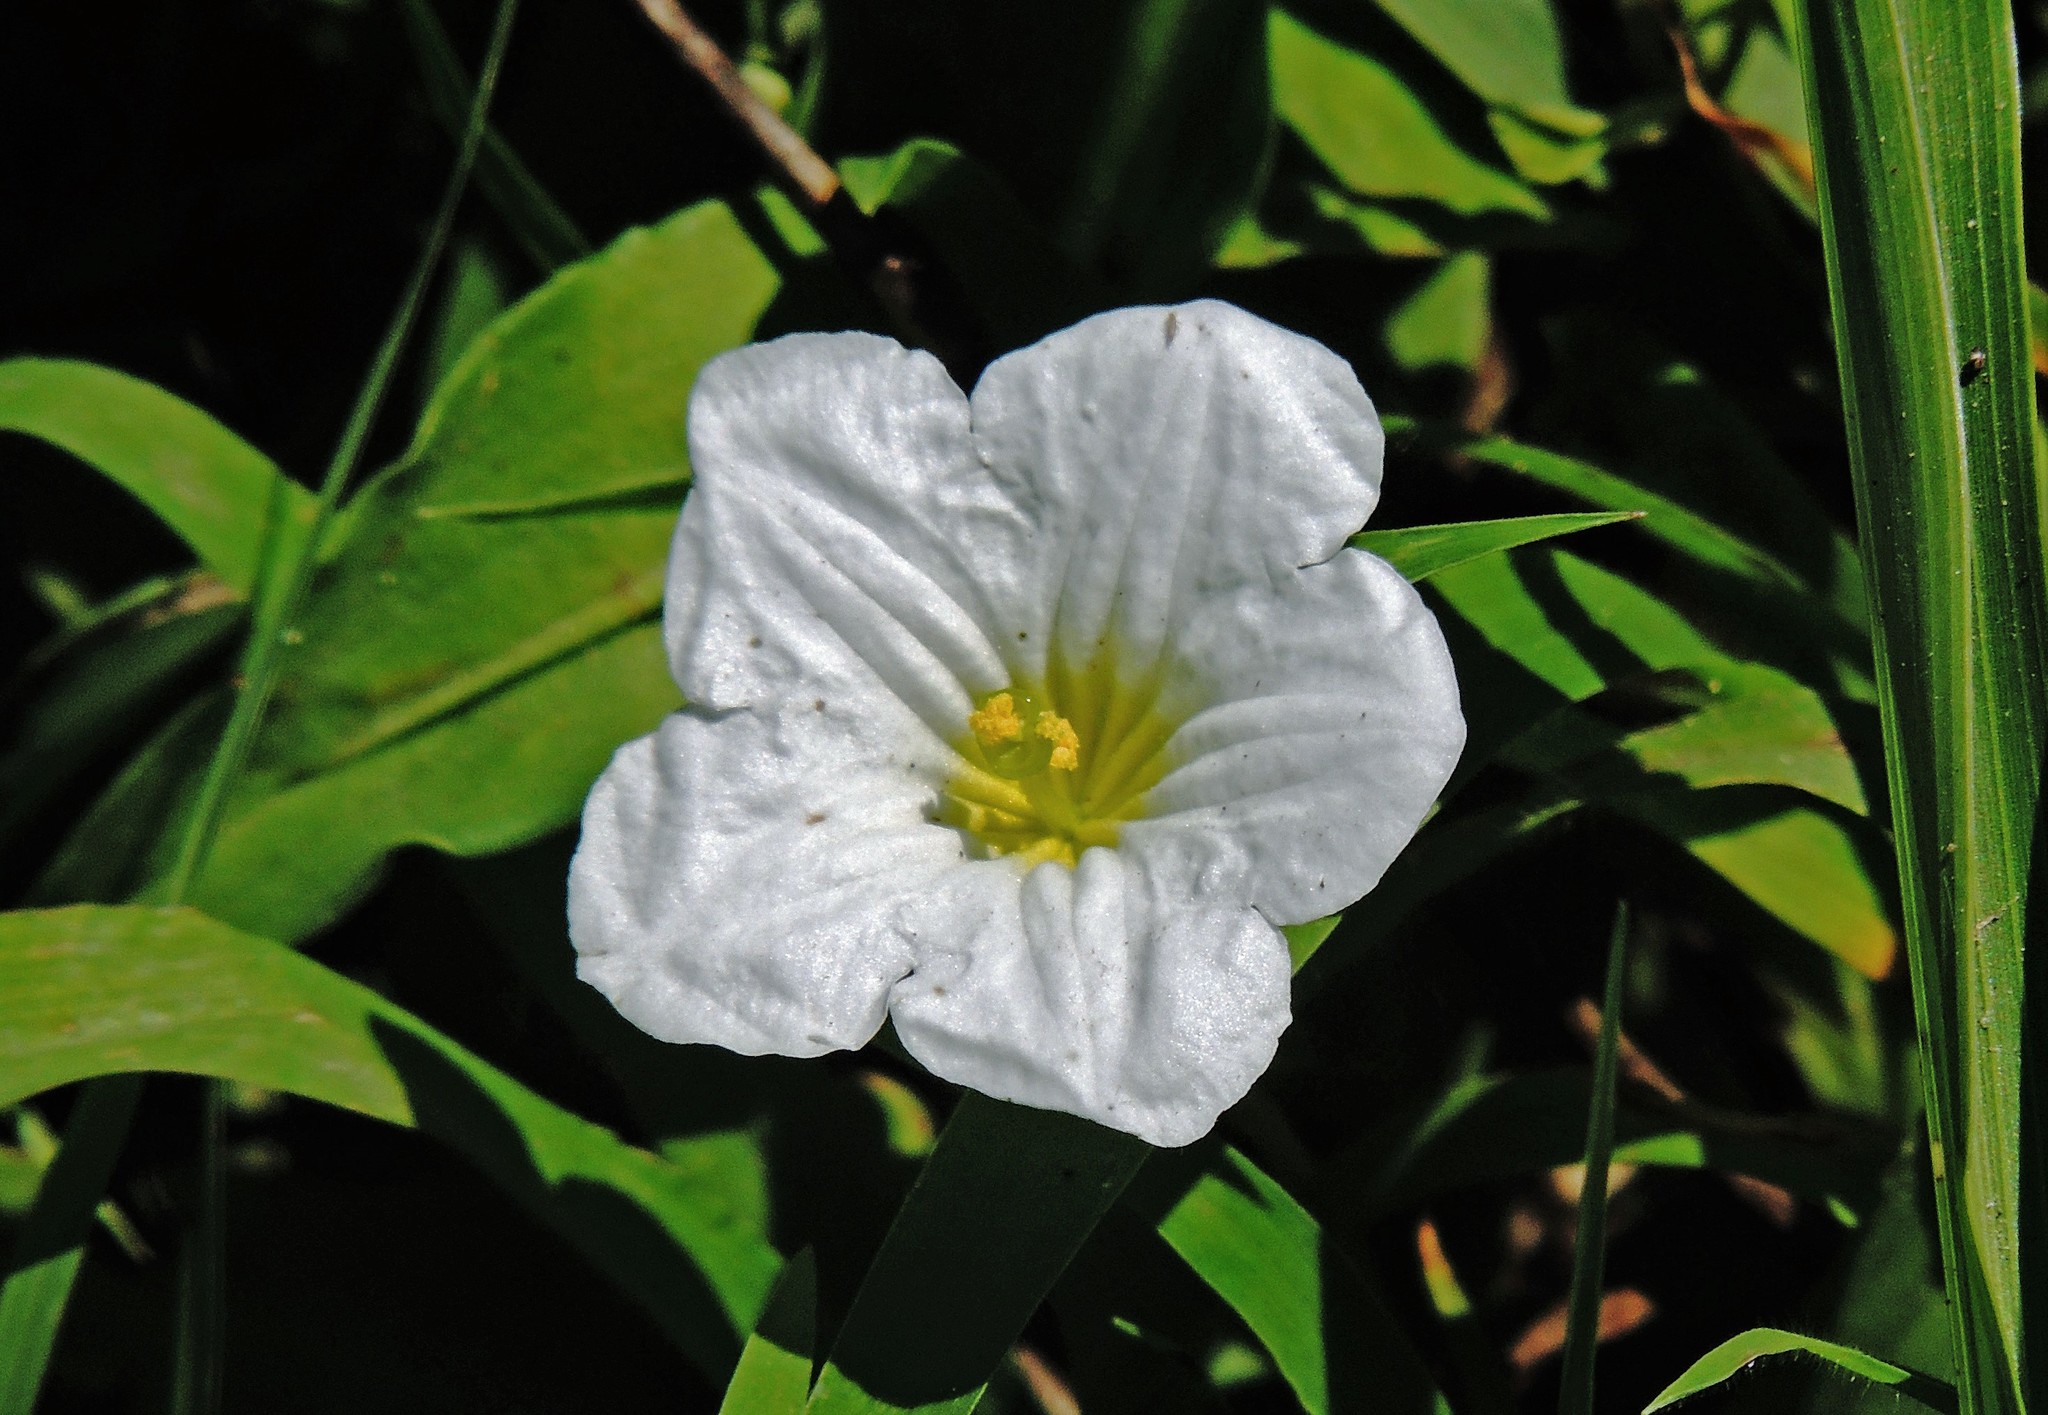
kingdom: Plantae
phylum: Tracheophyta
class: Magnoliopsida
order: Solanales
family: Solanaceae
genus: Nierembergia
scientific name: Nierembergia calycina
